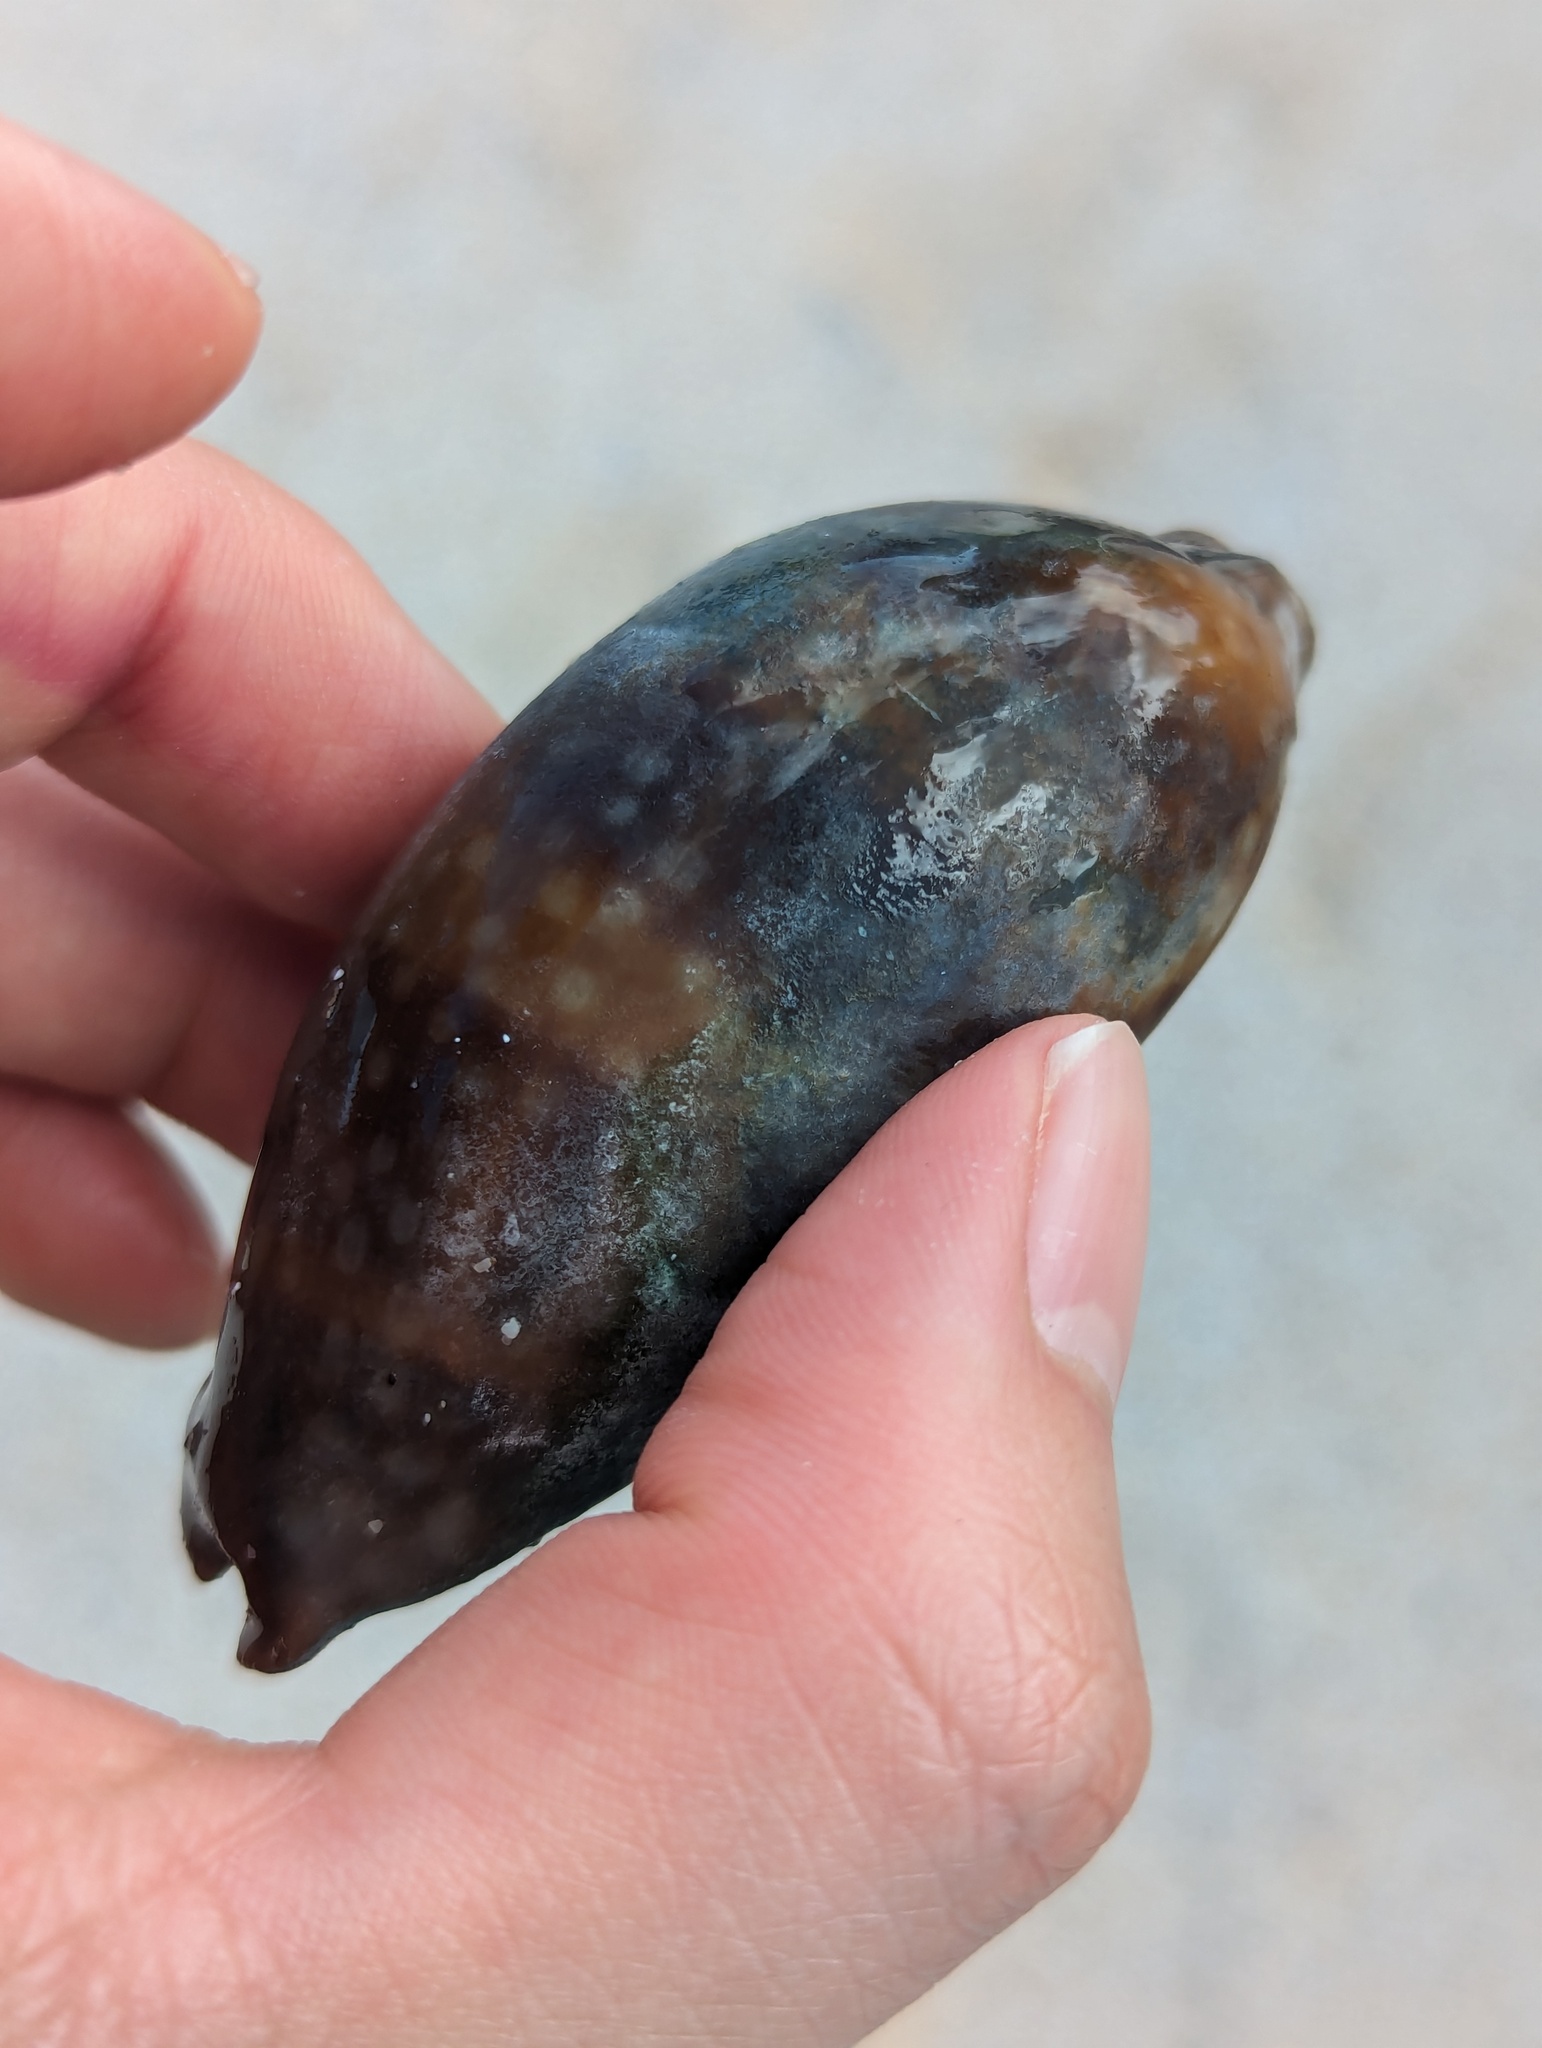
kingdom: Animalia
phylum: Mollusca
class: Gastropoda
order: Littorinimorpha
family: Cypraeidae
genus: Macrocypraea
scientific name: Macrocypraea cervinetta
